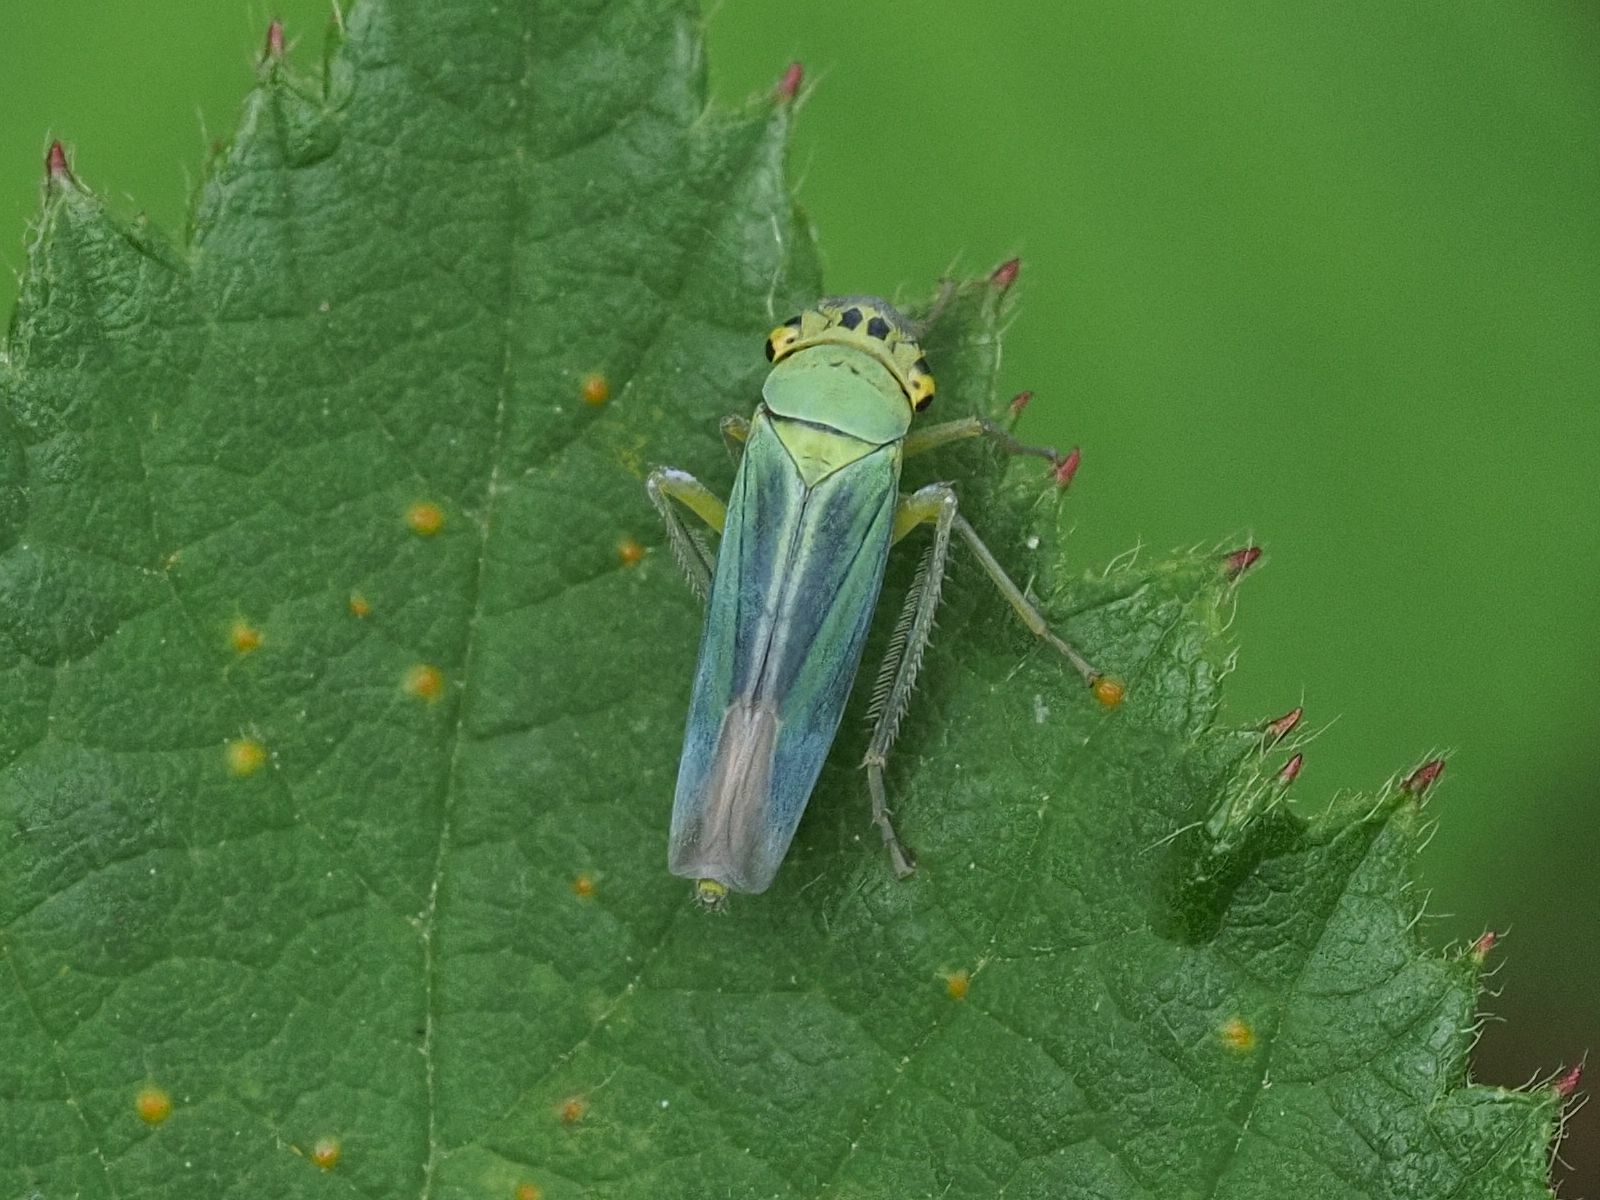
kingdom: Animalia
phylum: Arthropoda
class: Insecta
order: Hemiptera
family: Cicadellidae
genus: Cicadella
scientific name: Cicadella viridis
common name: Leafhopper
